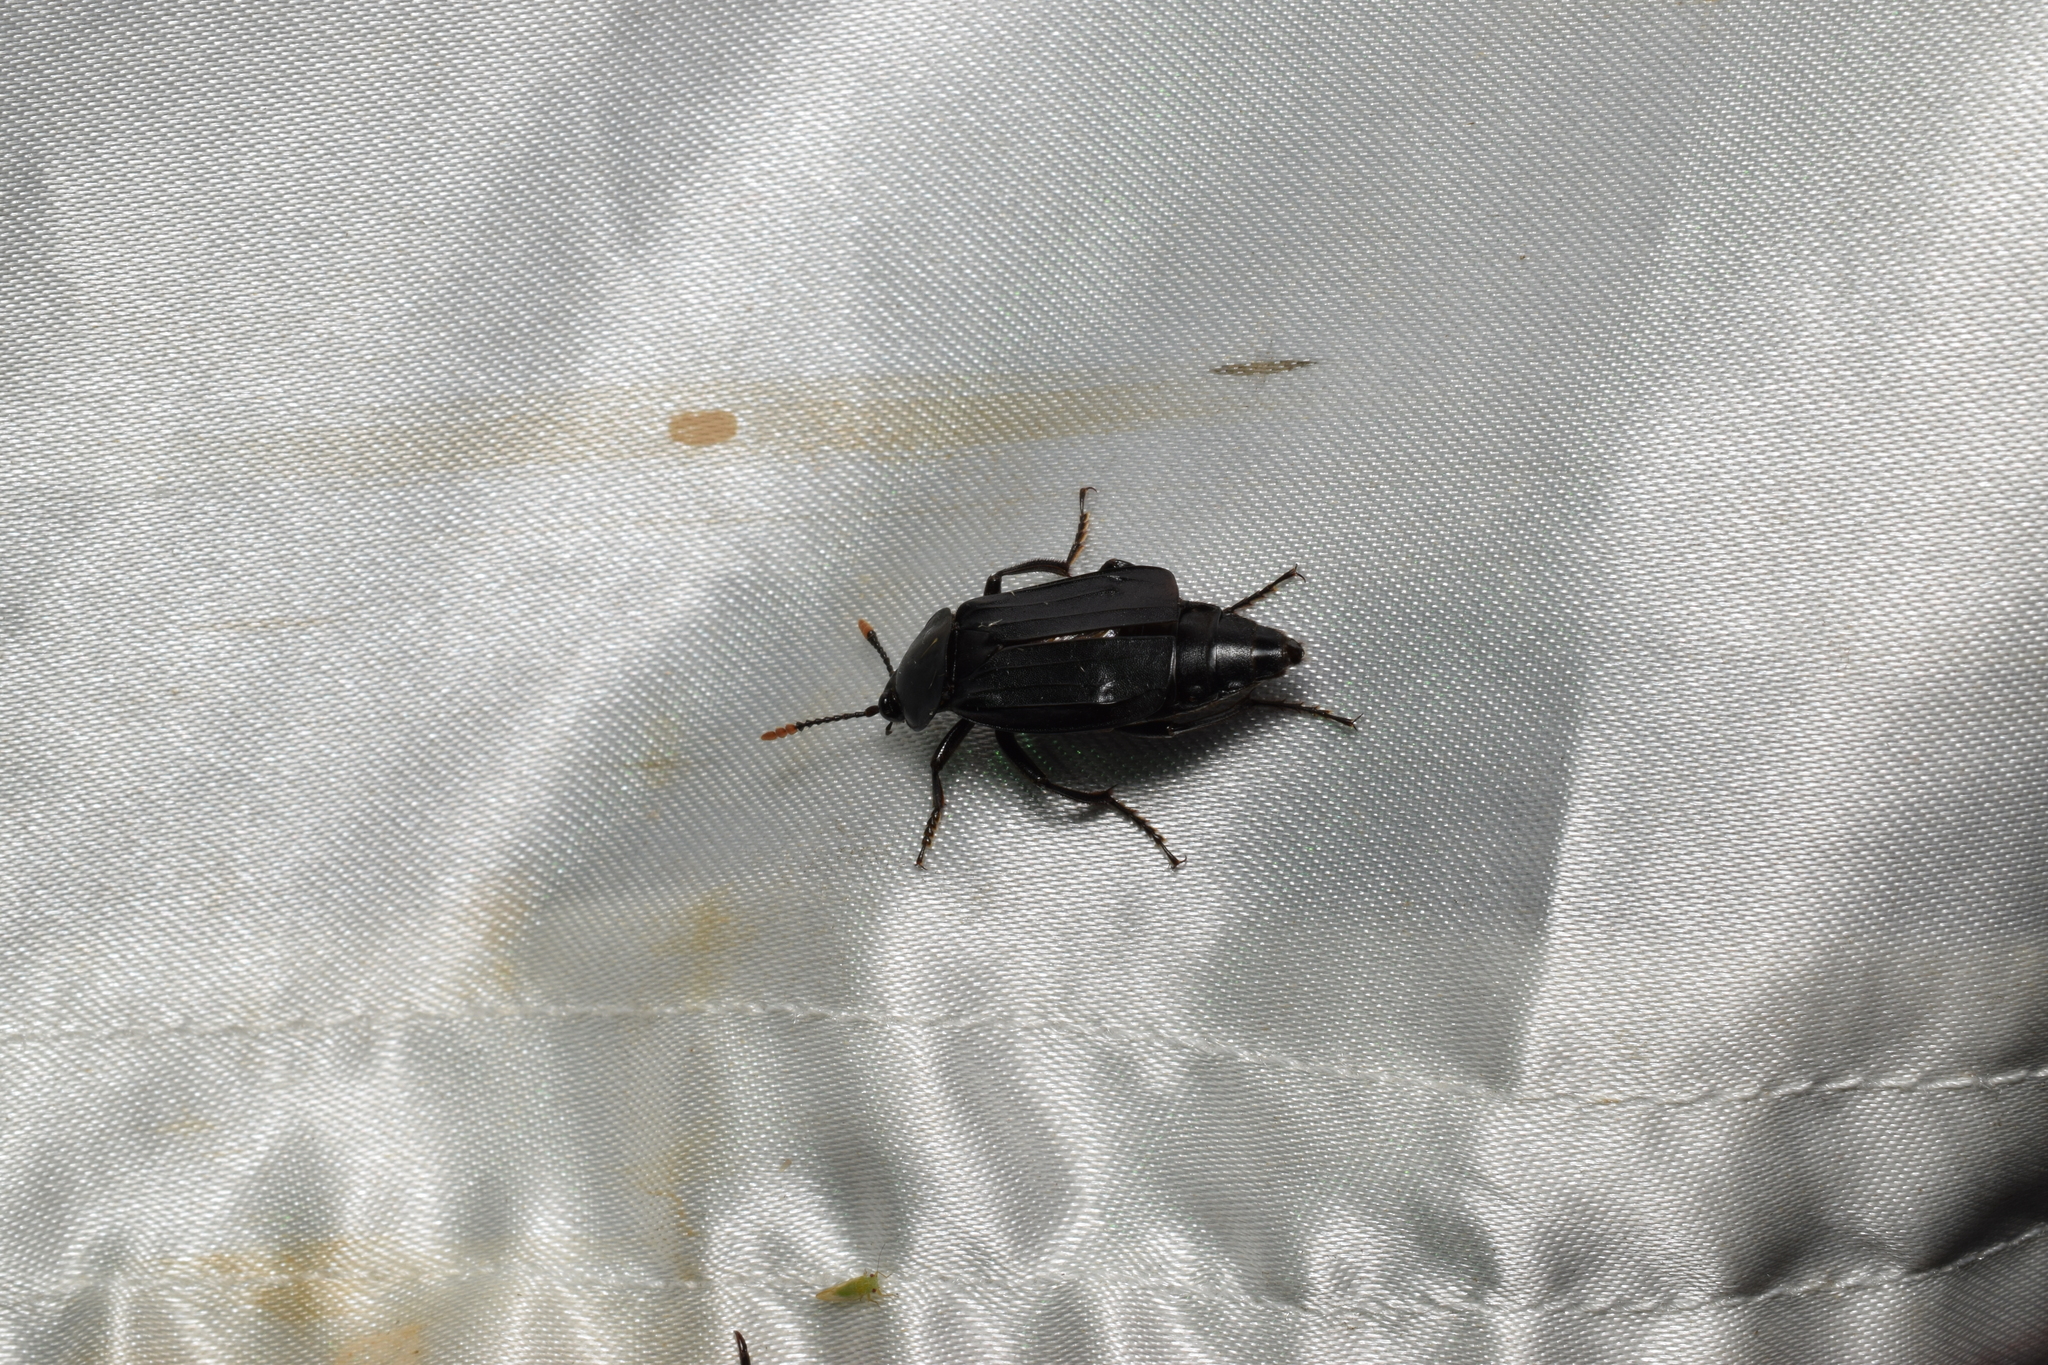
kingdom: Animalia
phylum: Arthropoda
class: Insecta
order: Coleoptera
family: Staphylinidae
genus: Necrodes
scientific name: Necrodes littoralis
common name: Shore sexton beetle
